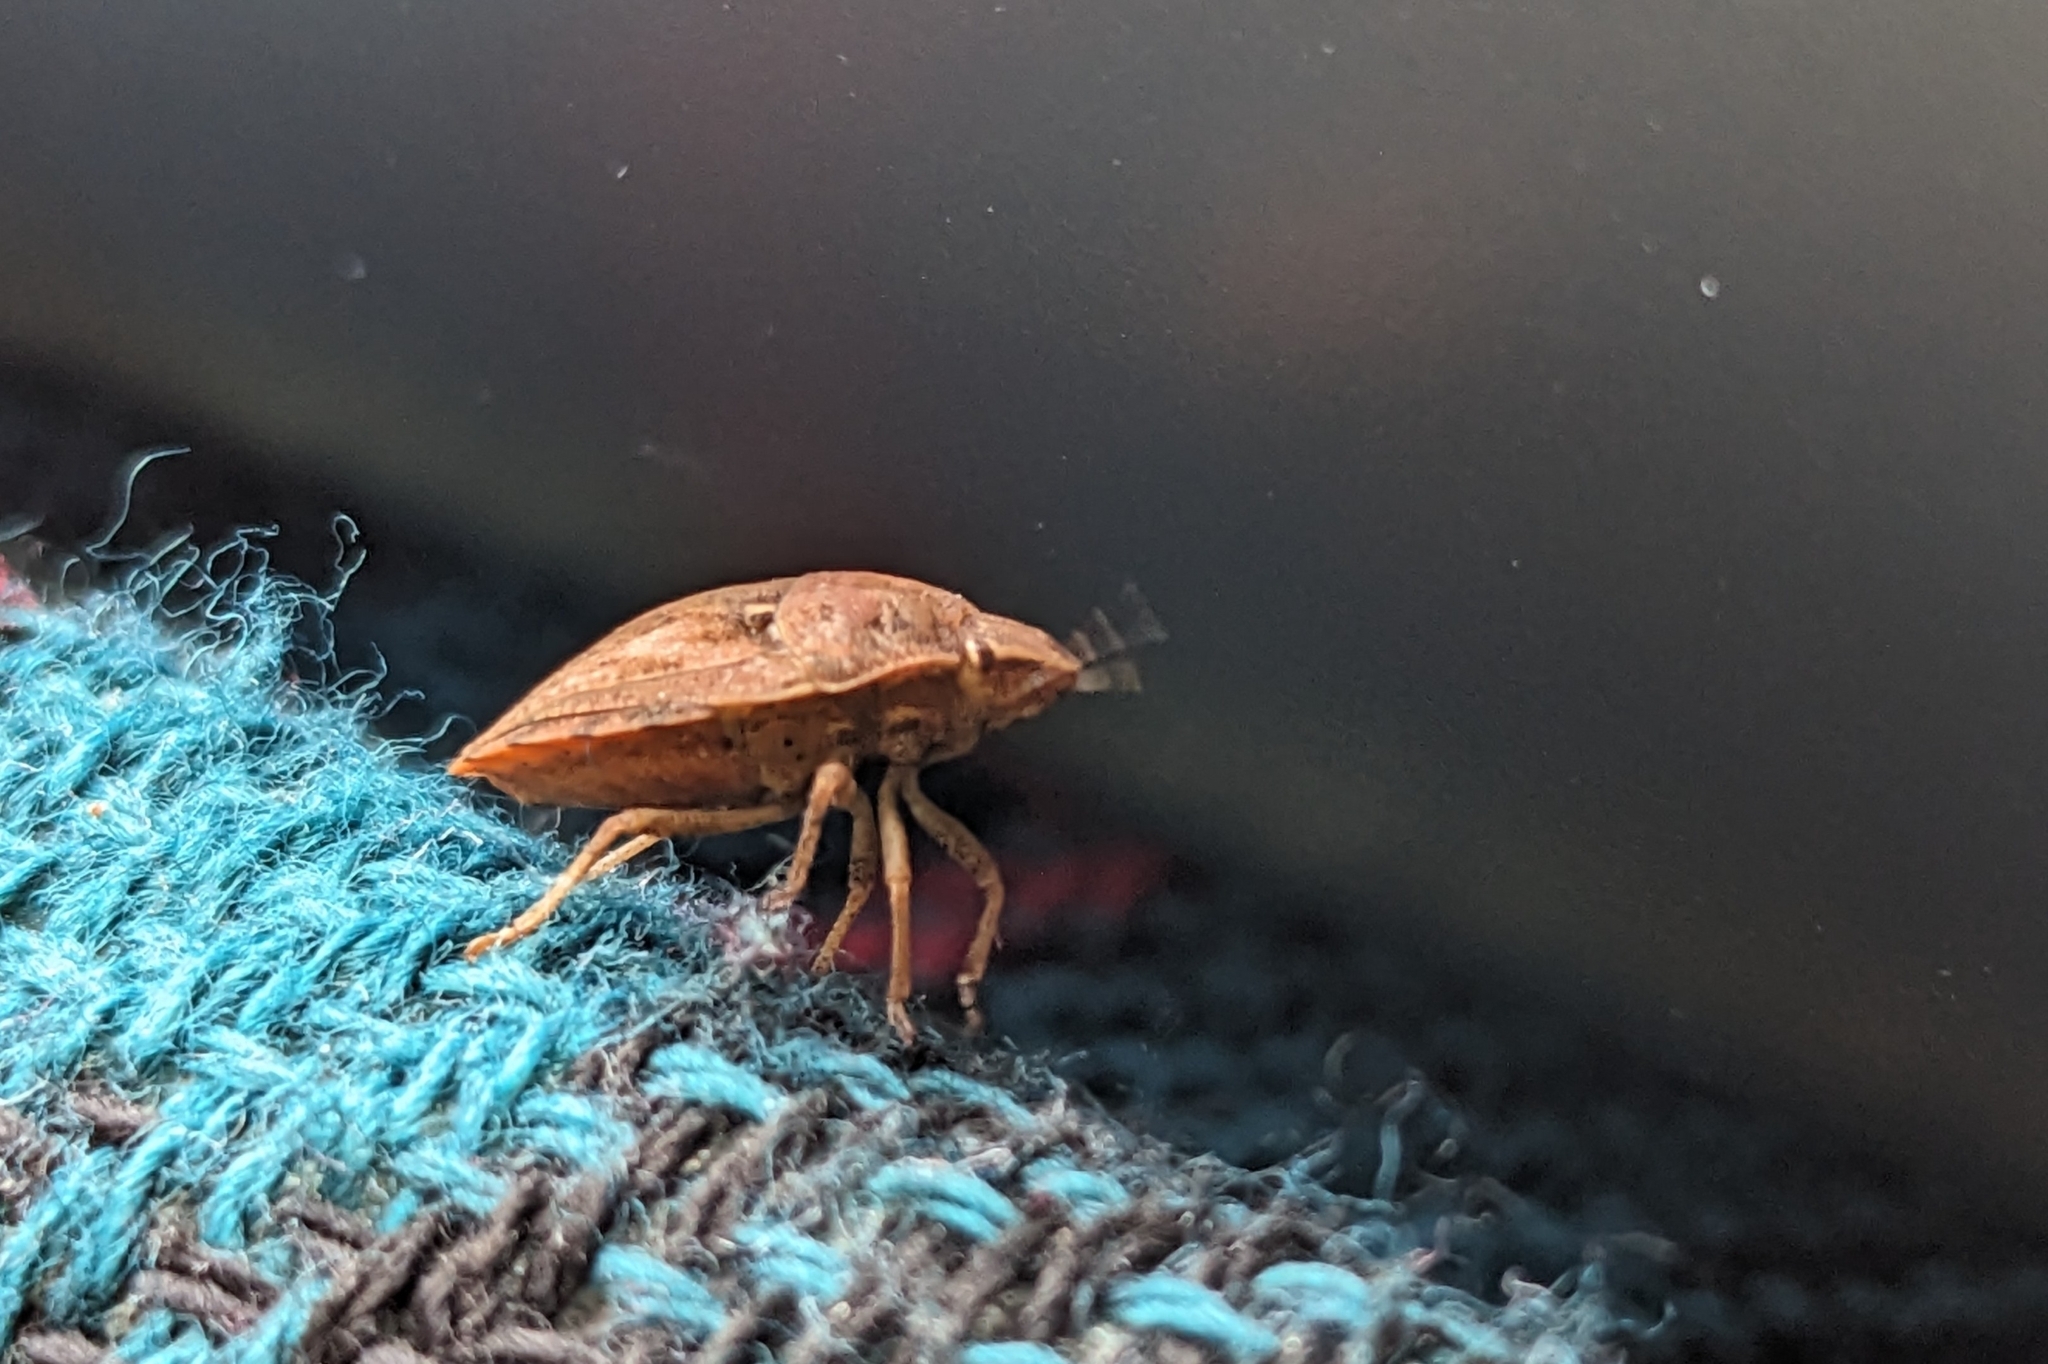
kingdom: Animalia
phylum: Arthropoda
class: Insecta
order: Hemiptera
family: Scutelleridae
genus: Eurygaster
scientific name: Eurygaster maura
